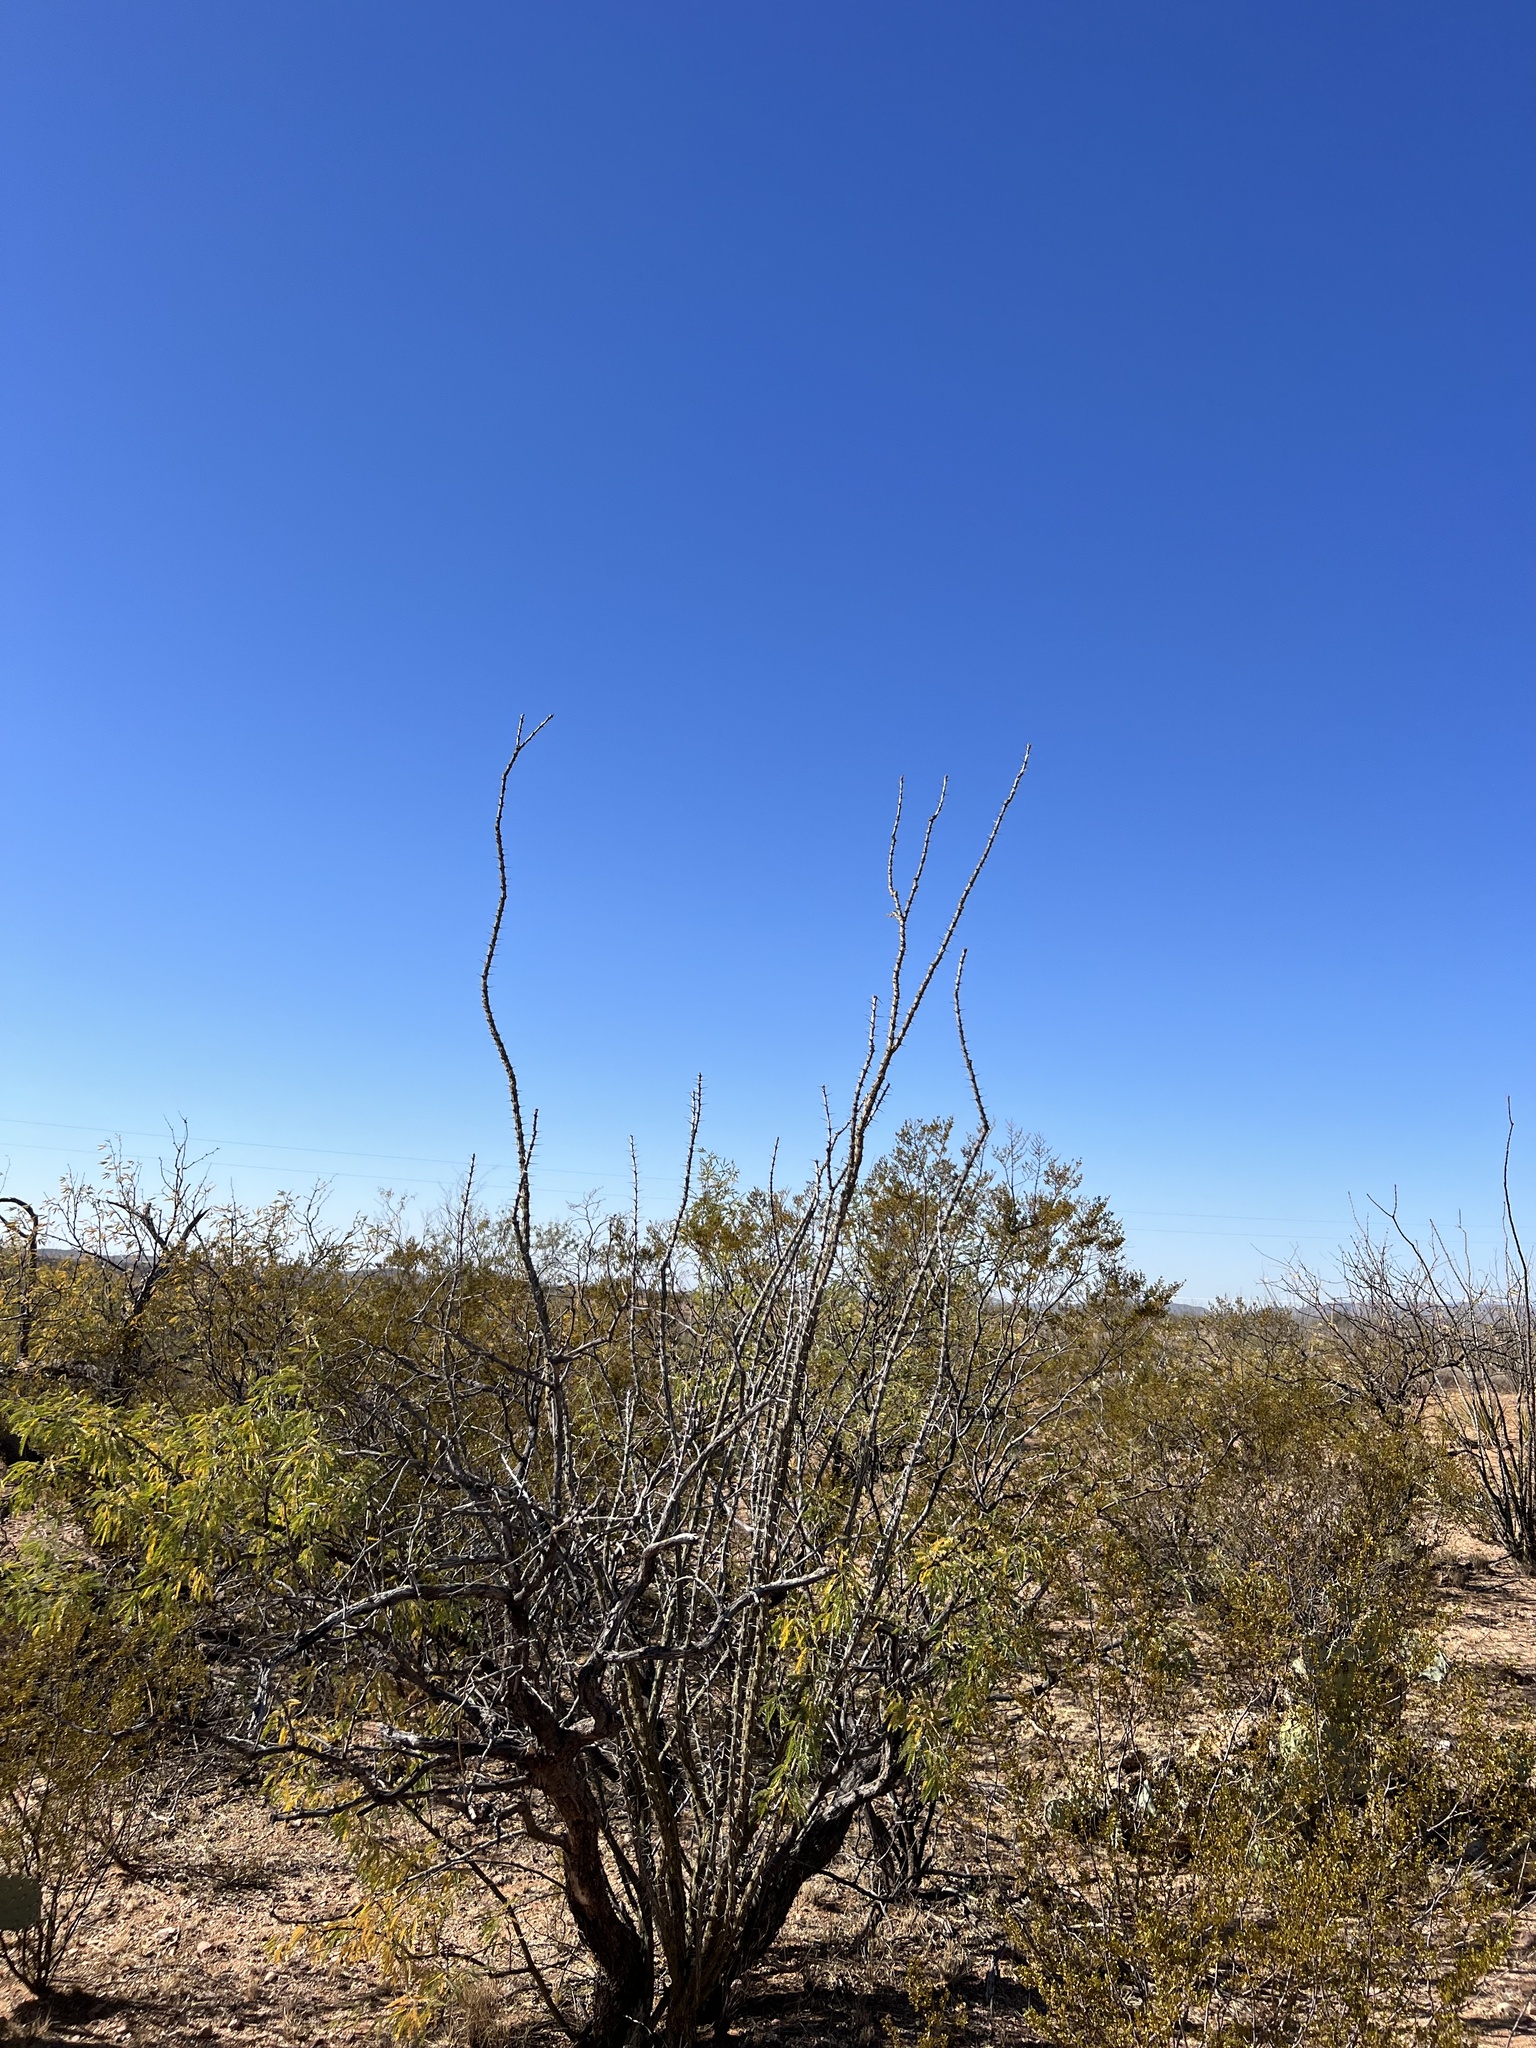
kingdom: Plantae
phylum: Tracheophyta
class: Magnoliopsida
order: Ericales
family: Fouquieriaceae
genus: Fouquieria
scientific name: Fouquieria splendens
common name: Vine-cactus
